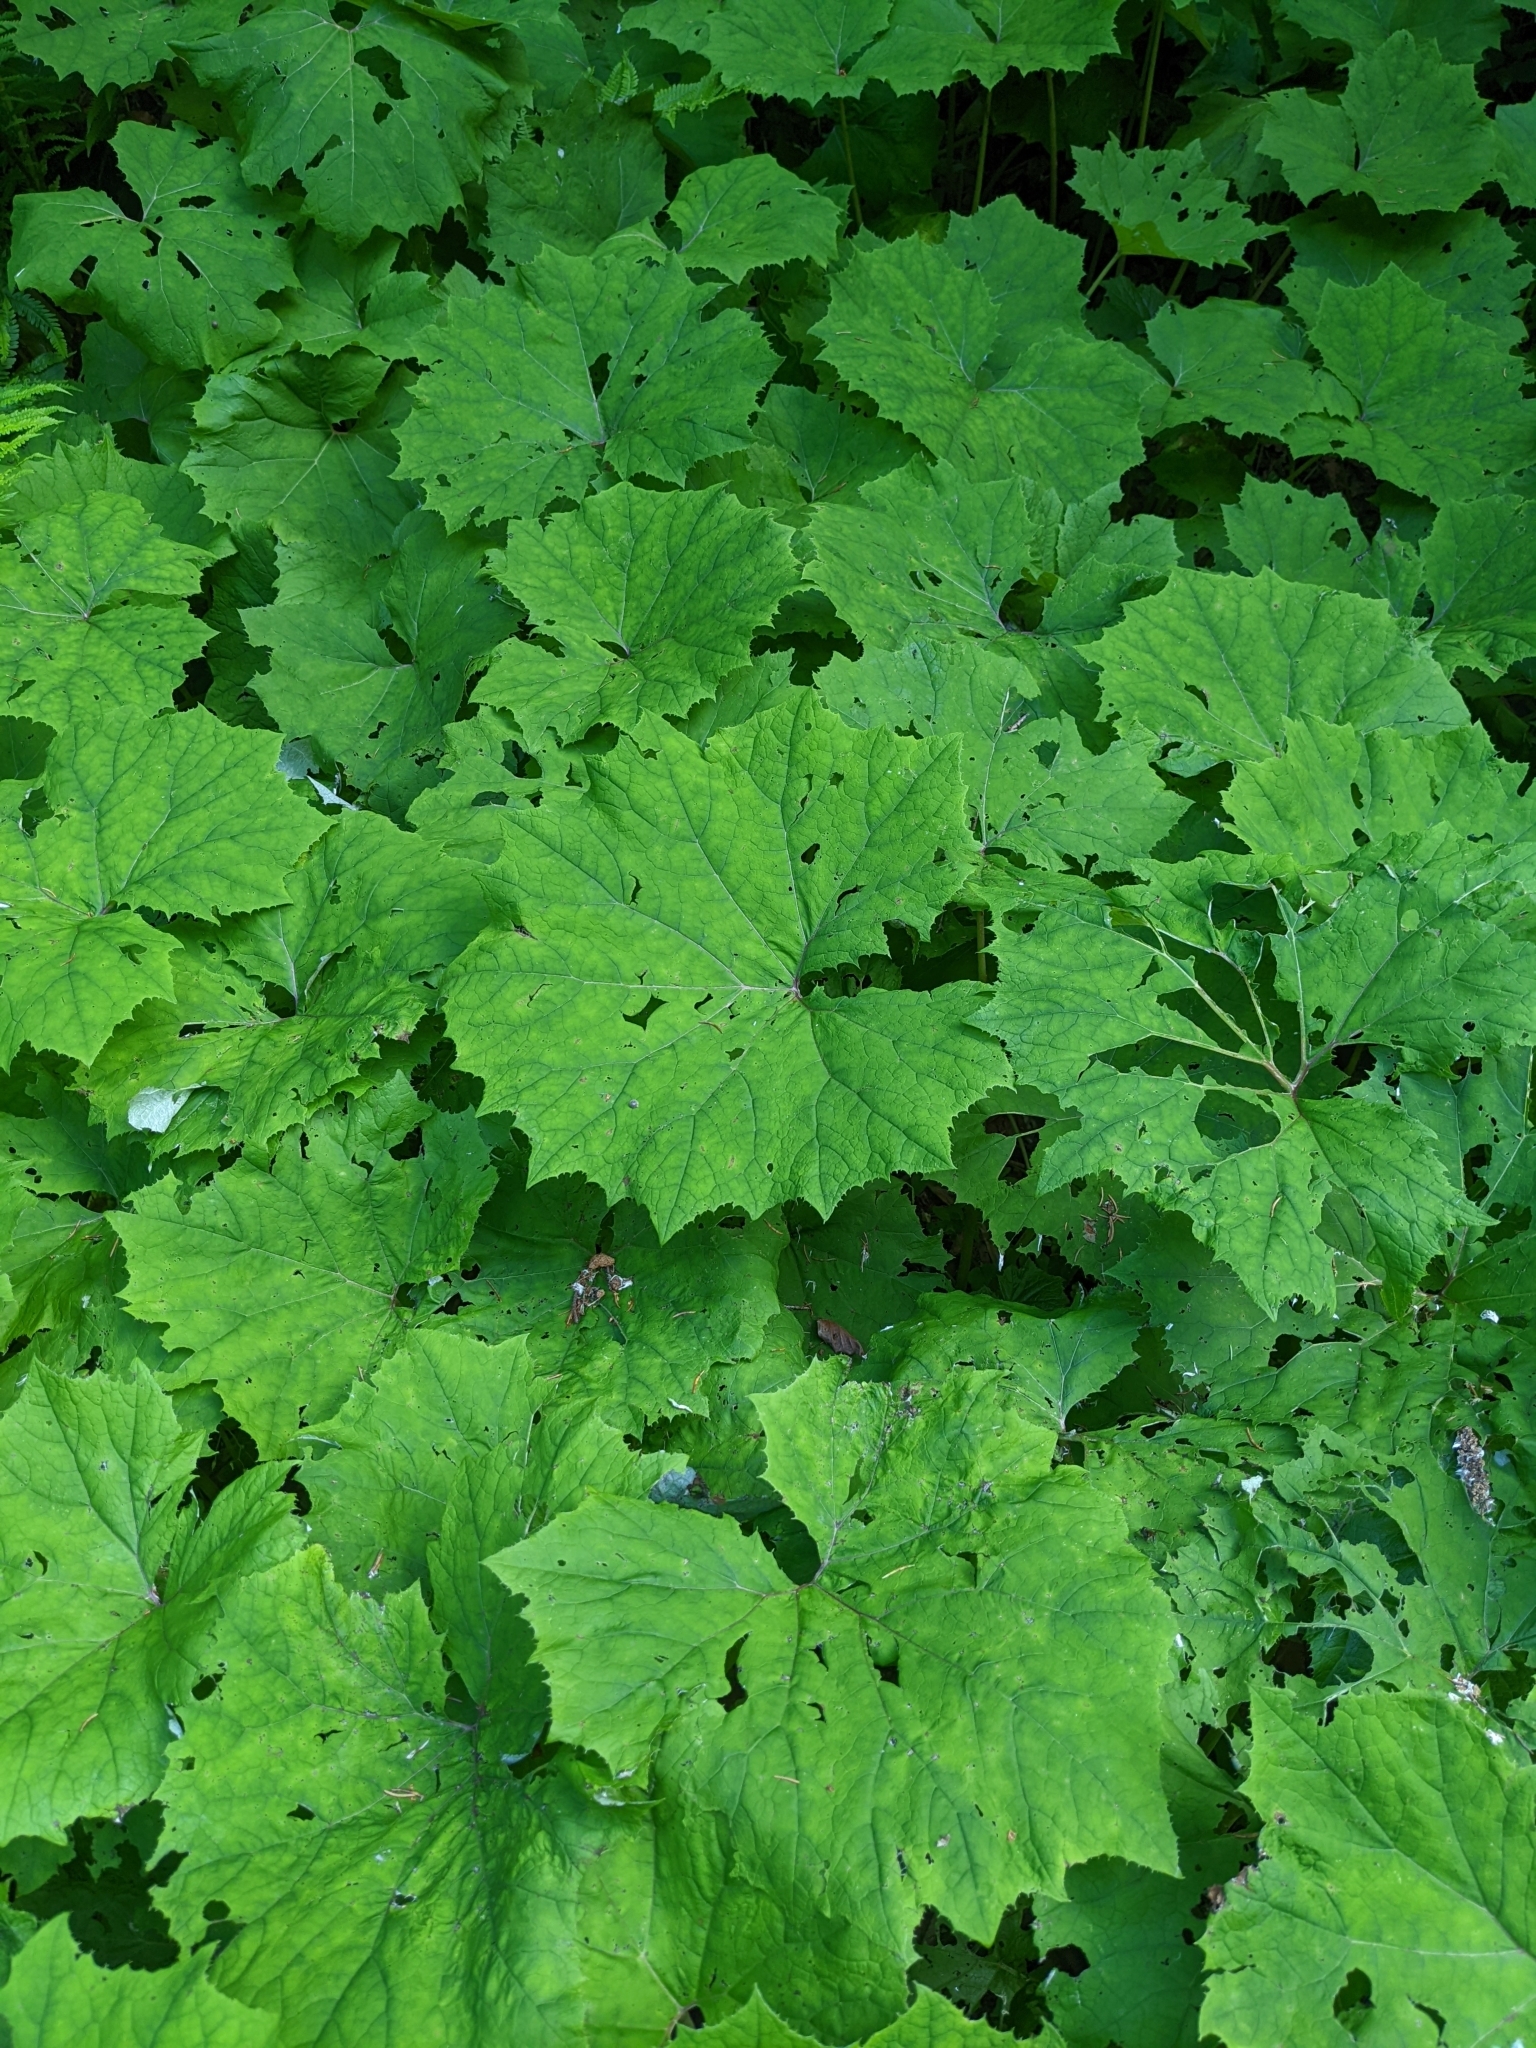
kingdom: Plantae
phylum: Tracheophyta
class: Magnoliopsida
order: Asterales
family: Asteraceae
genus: Petasites
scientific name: Petasites albus
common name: White butterbur
